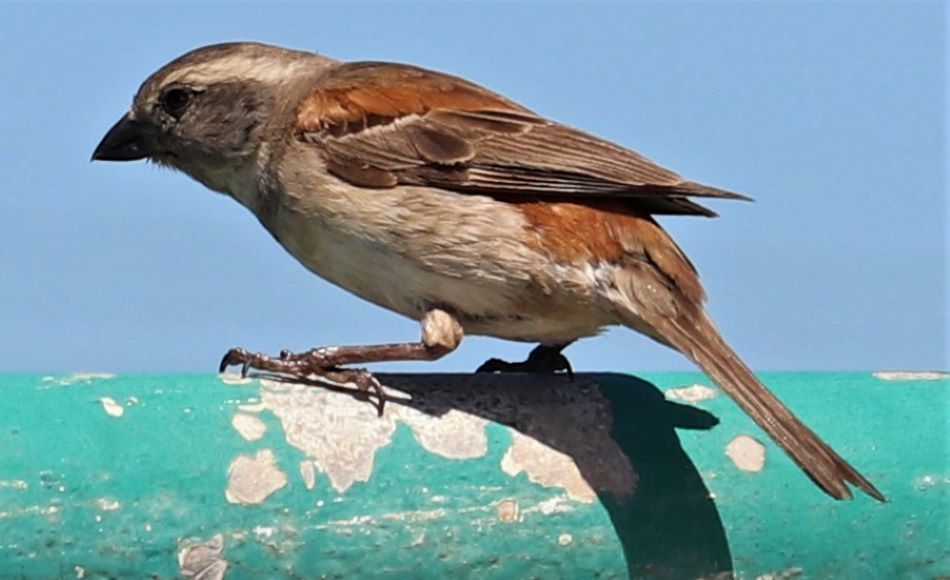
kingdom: Animalia
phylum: Chordata
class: Aves
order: Passeriformes
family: Passeridae
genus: Passer
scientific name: Passer melanurus
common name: Cape sparrow
